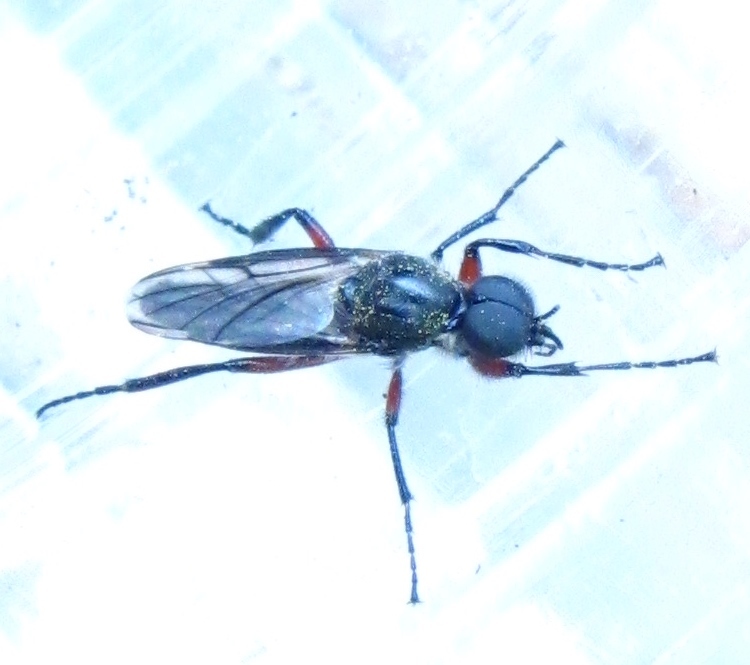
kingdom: Animalia
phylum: Arthropoda
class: Insecta
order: Diptera
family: Bibionidae
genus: Bibio
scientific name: Bibio femoratus
